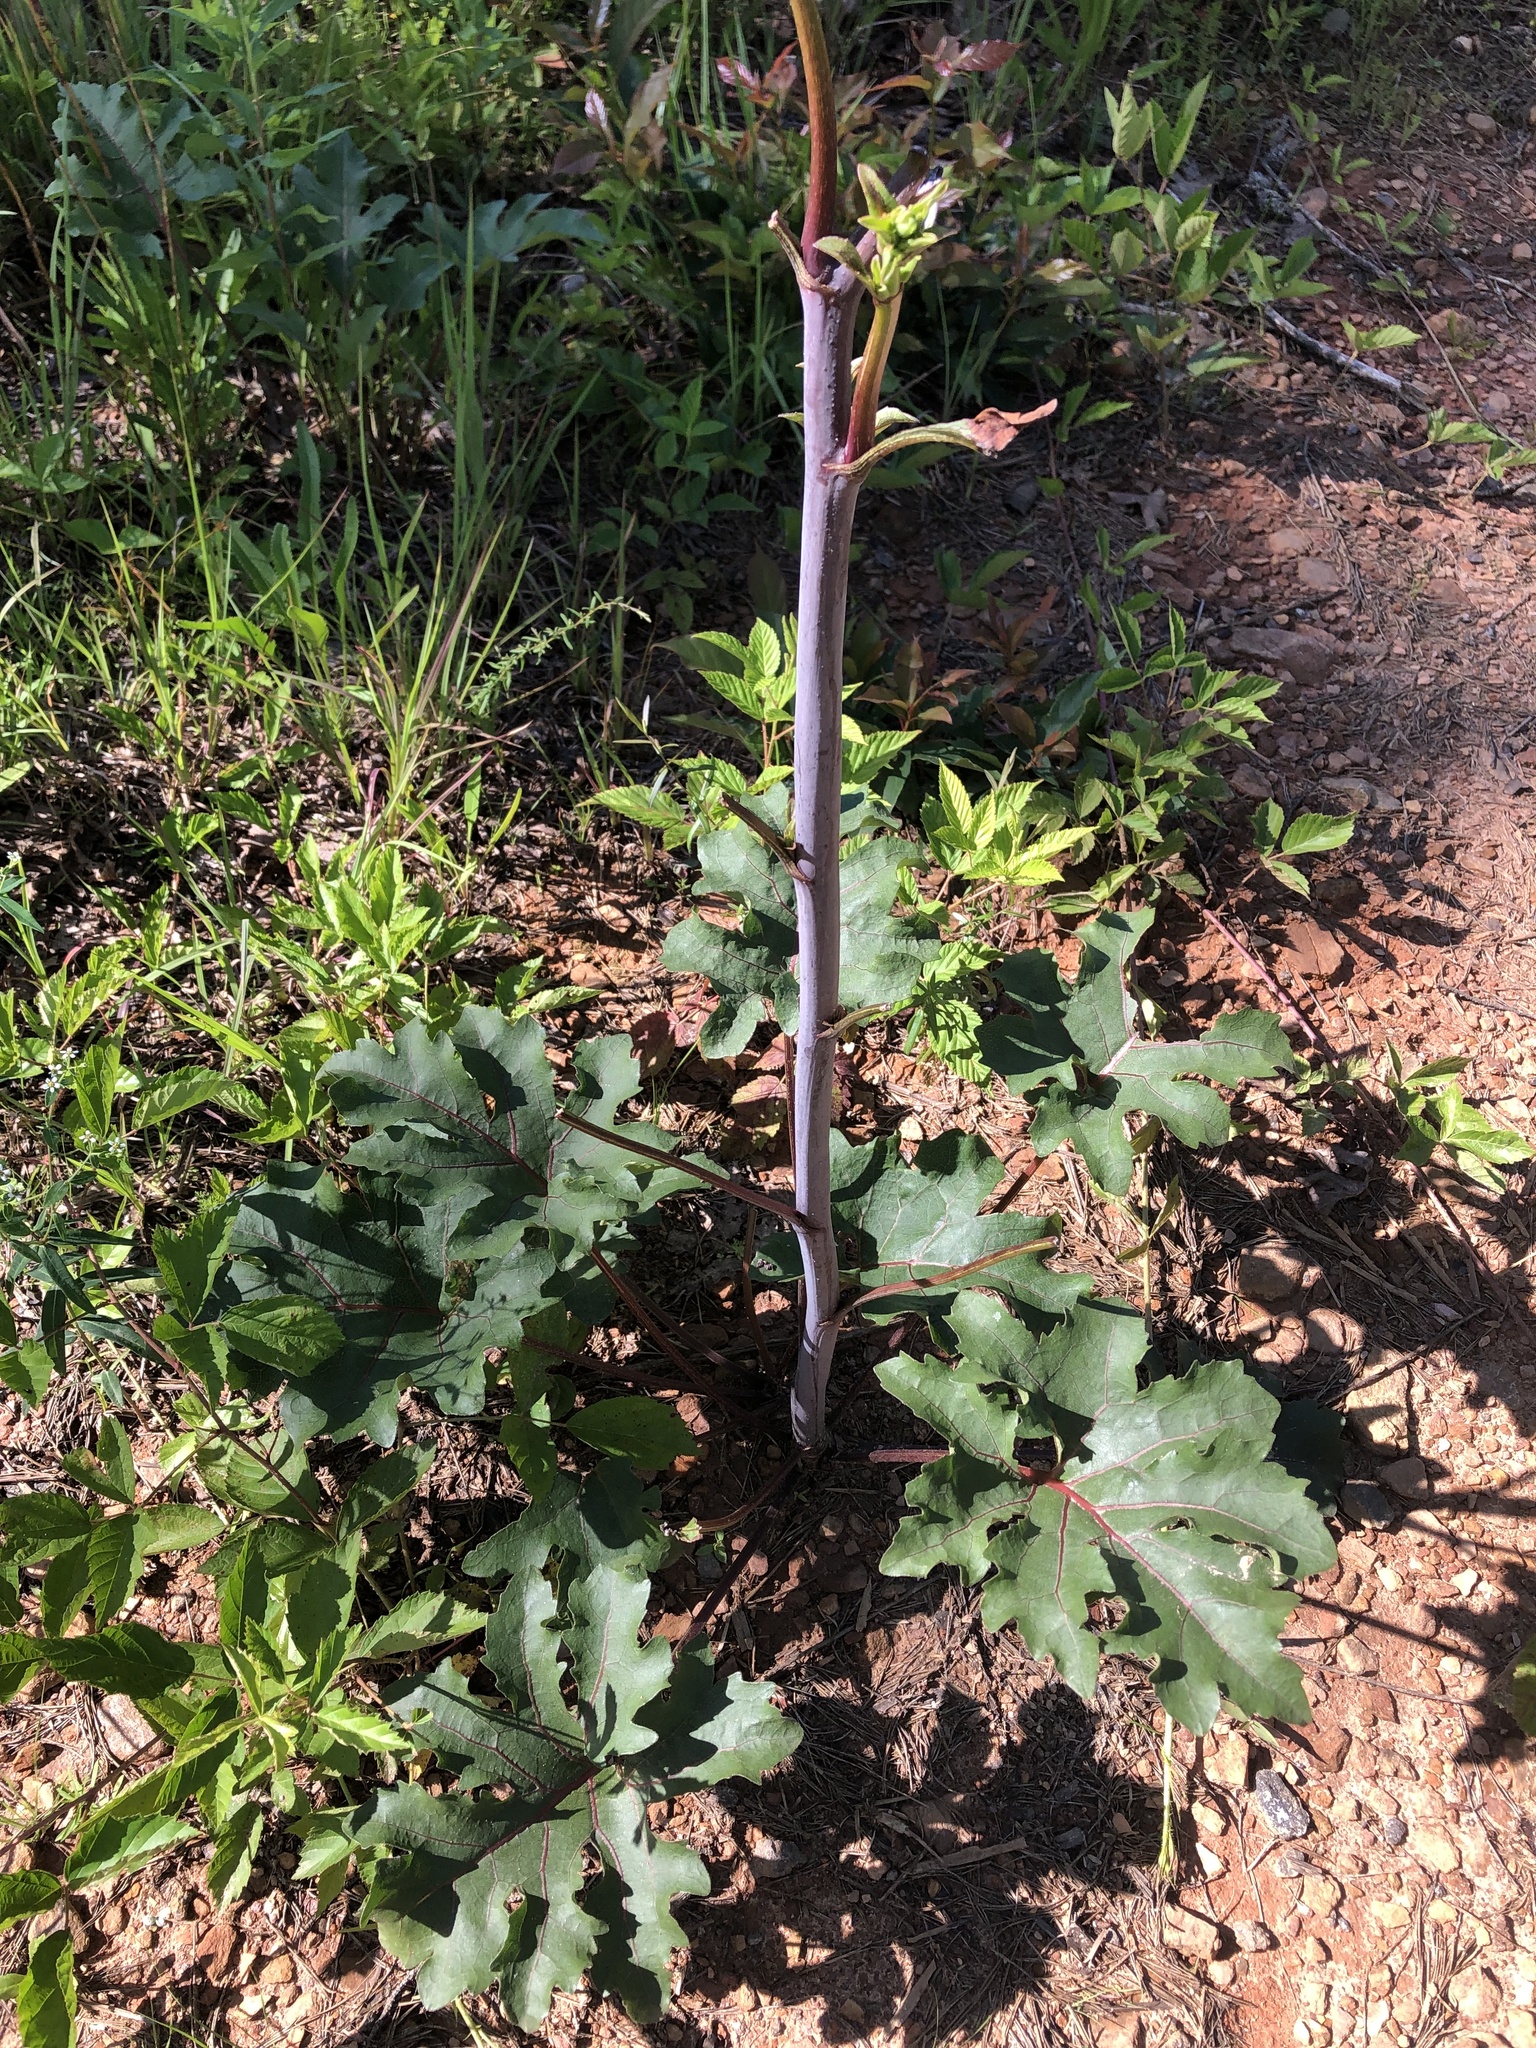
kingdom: Plantae
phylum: Tracheophyta
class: Magnoliopsida
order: Asterales
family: Asteraceae
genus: Silphium
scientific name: Silphium compositum
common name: Lesser basal-leaf rosinweed
